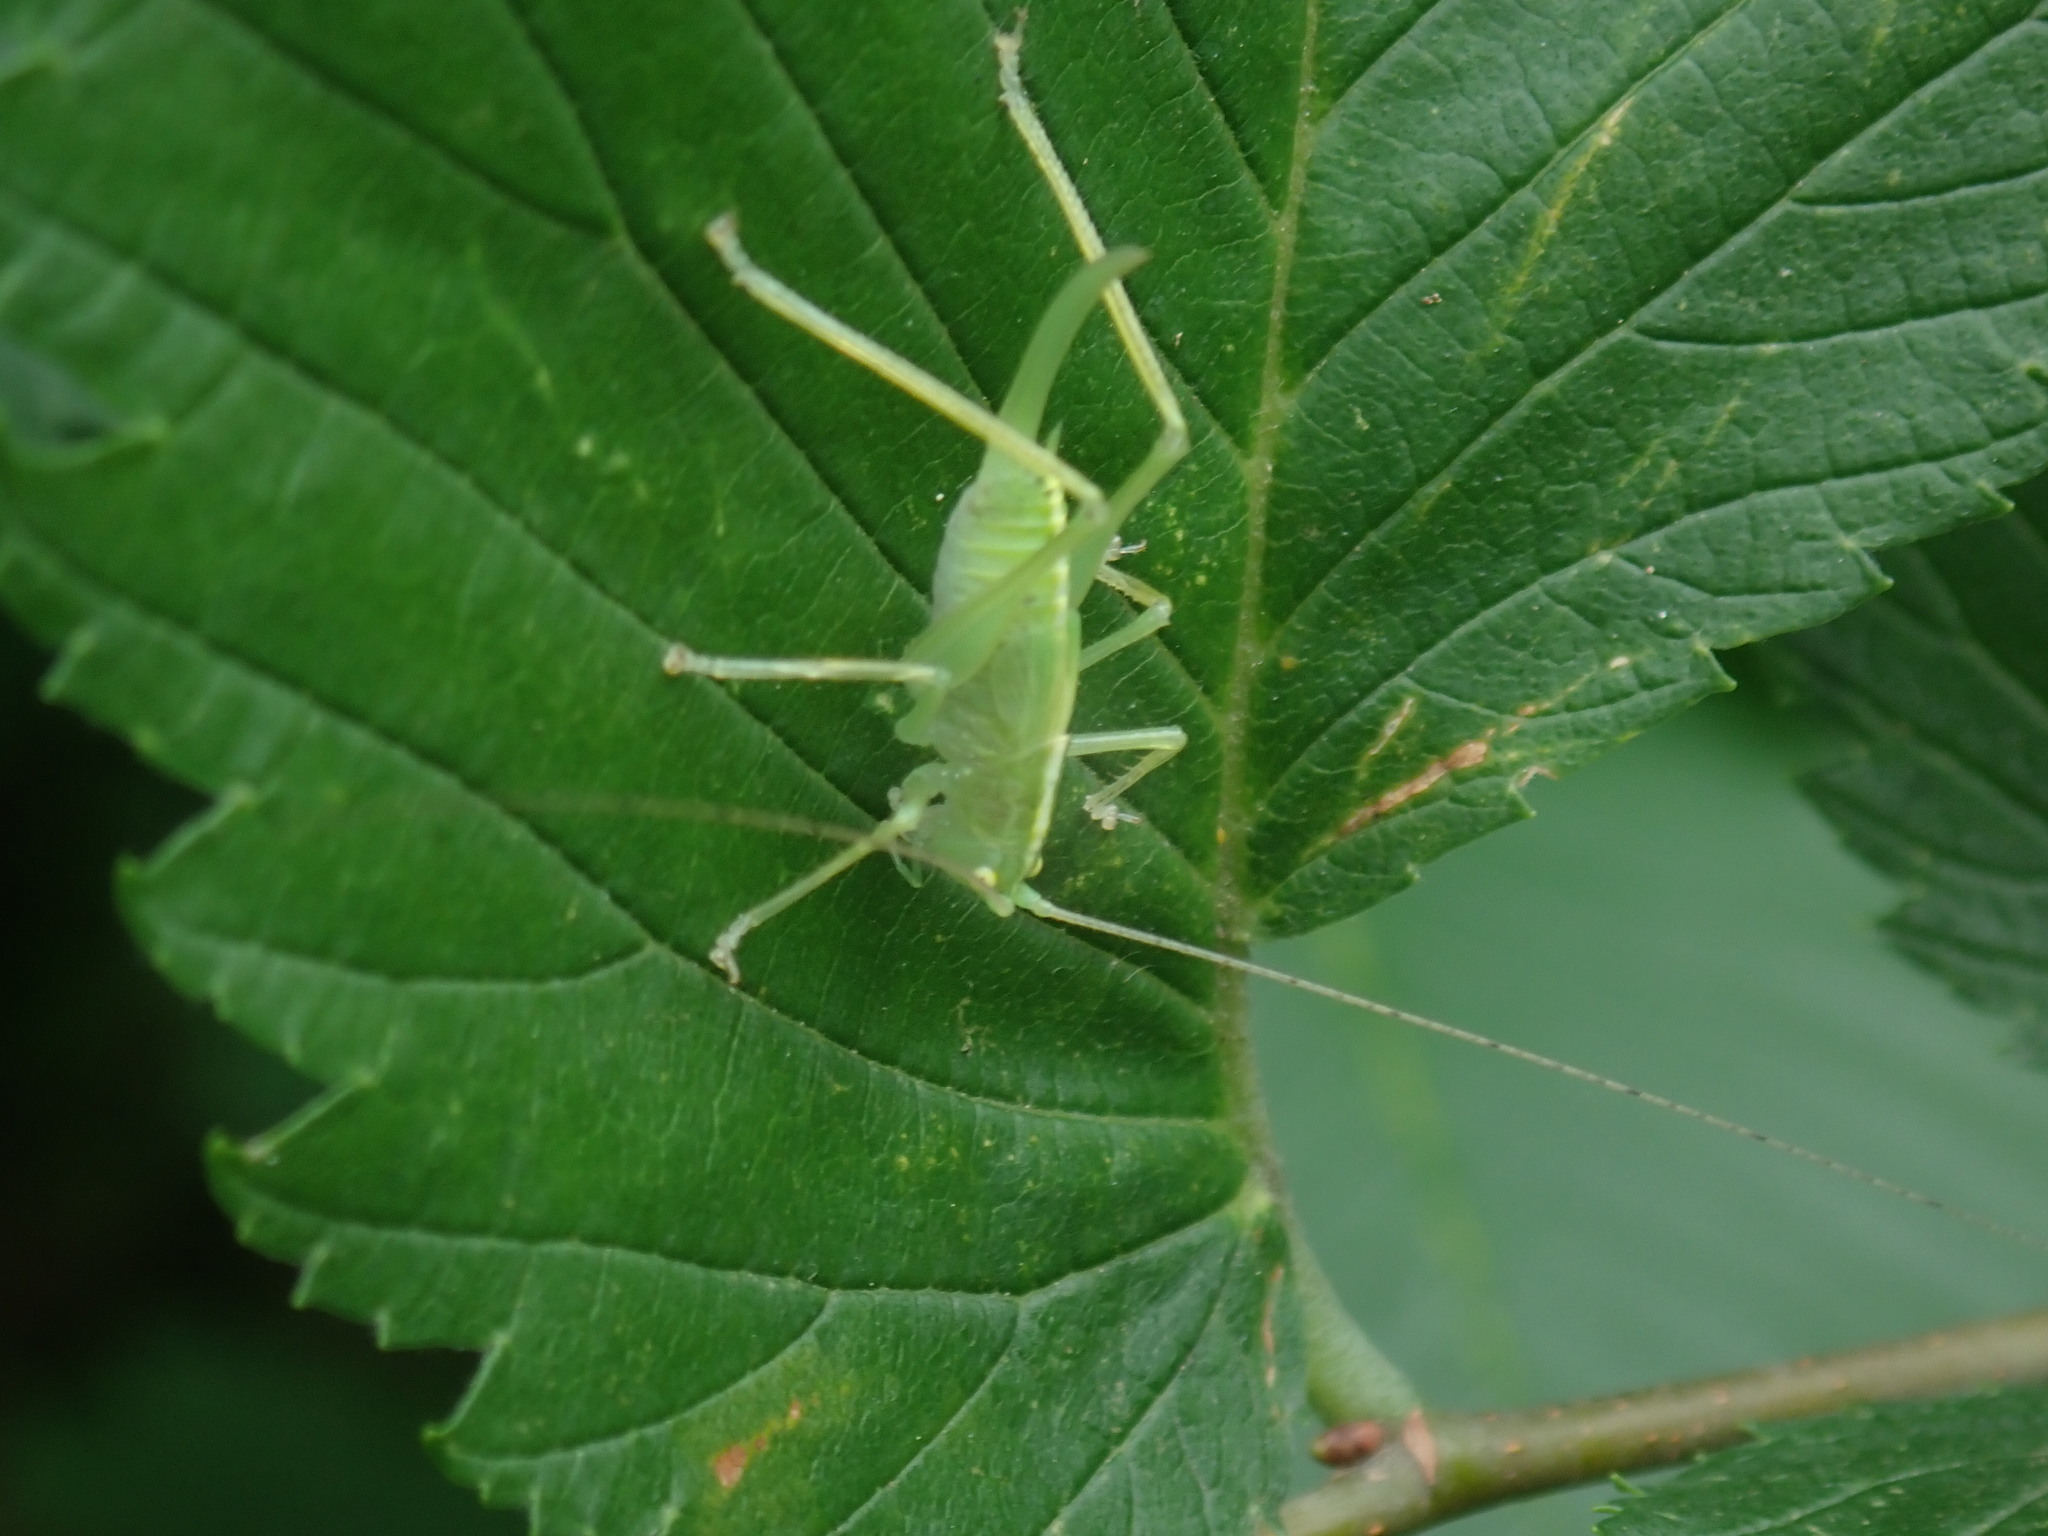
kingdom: Animalia
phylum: Arthropoda
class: Insecta
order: Orthoptera
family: Tettigoniidae
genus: Meconema
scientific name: Meconema thalassinum
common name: Oak bush-cricket
